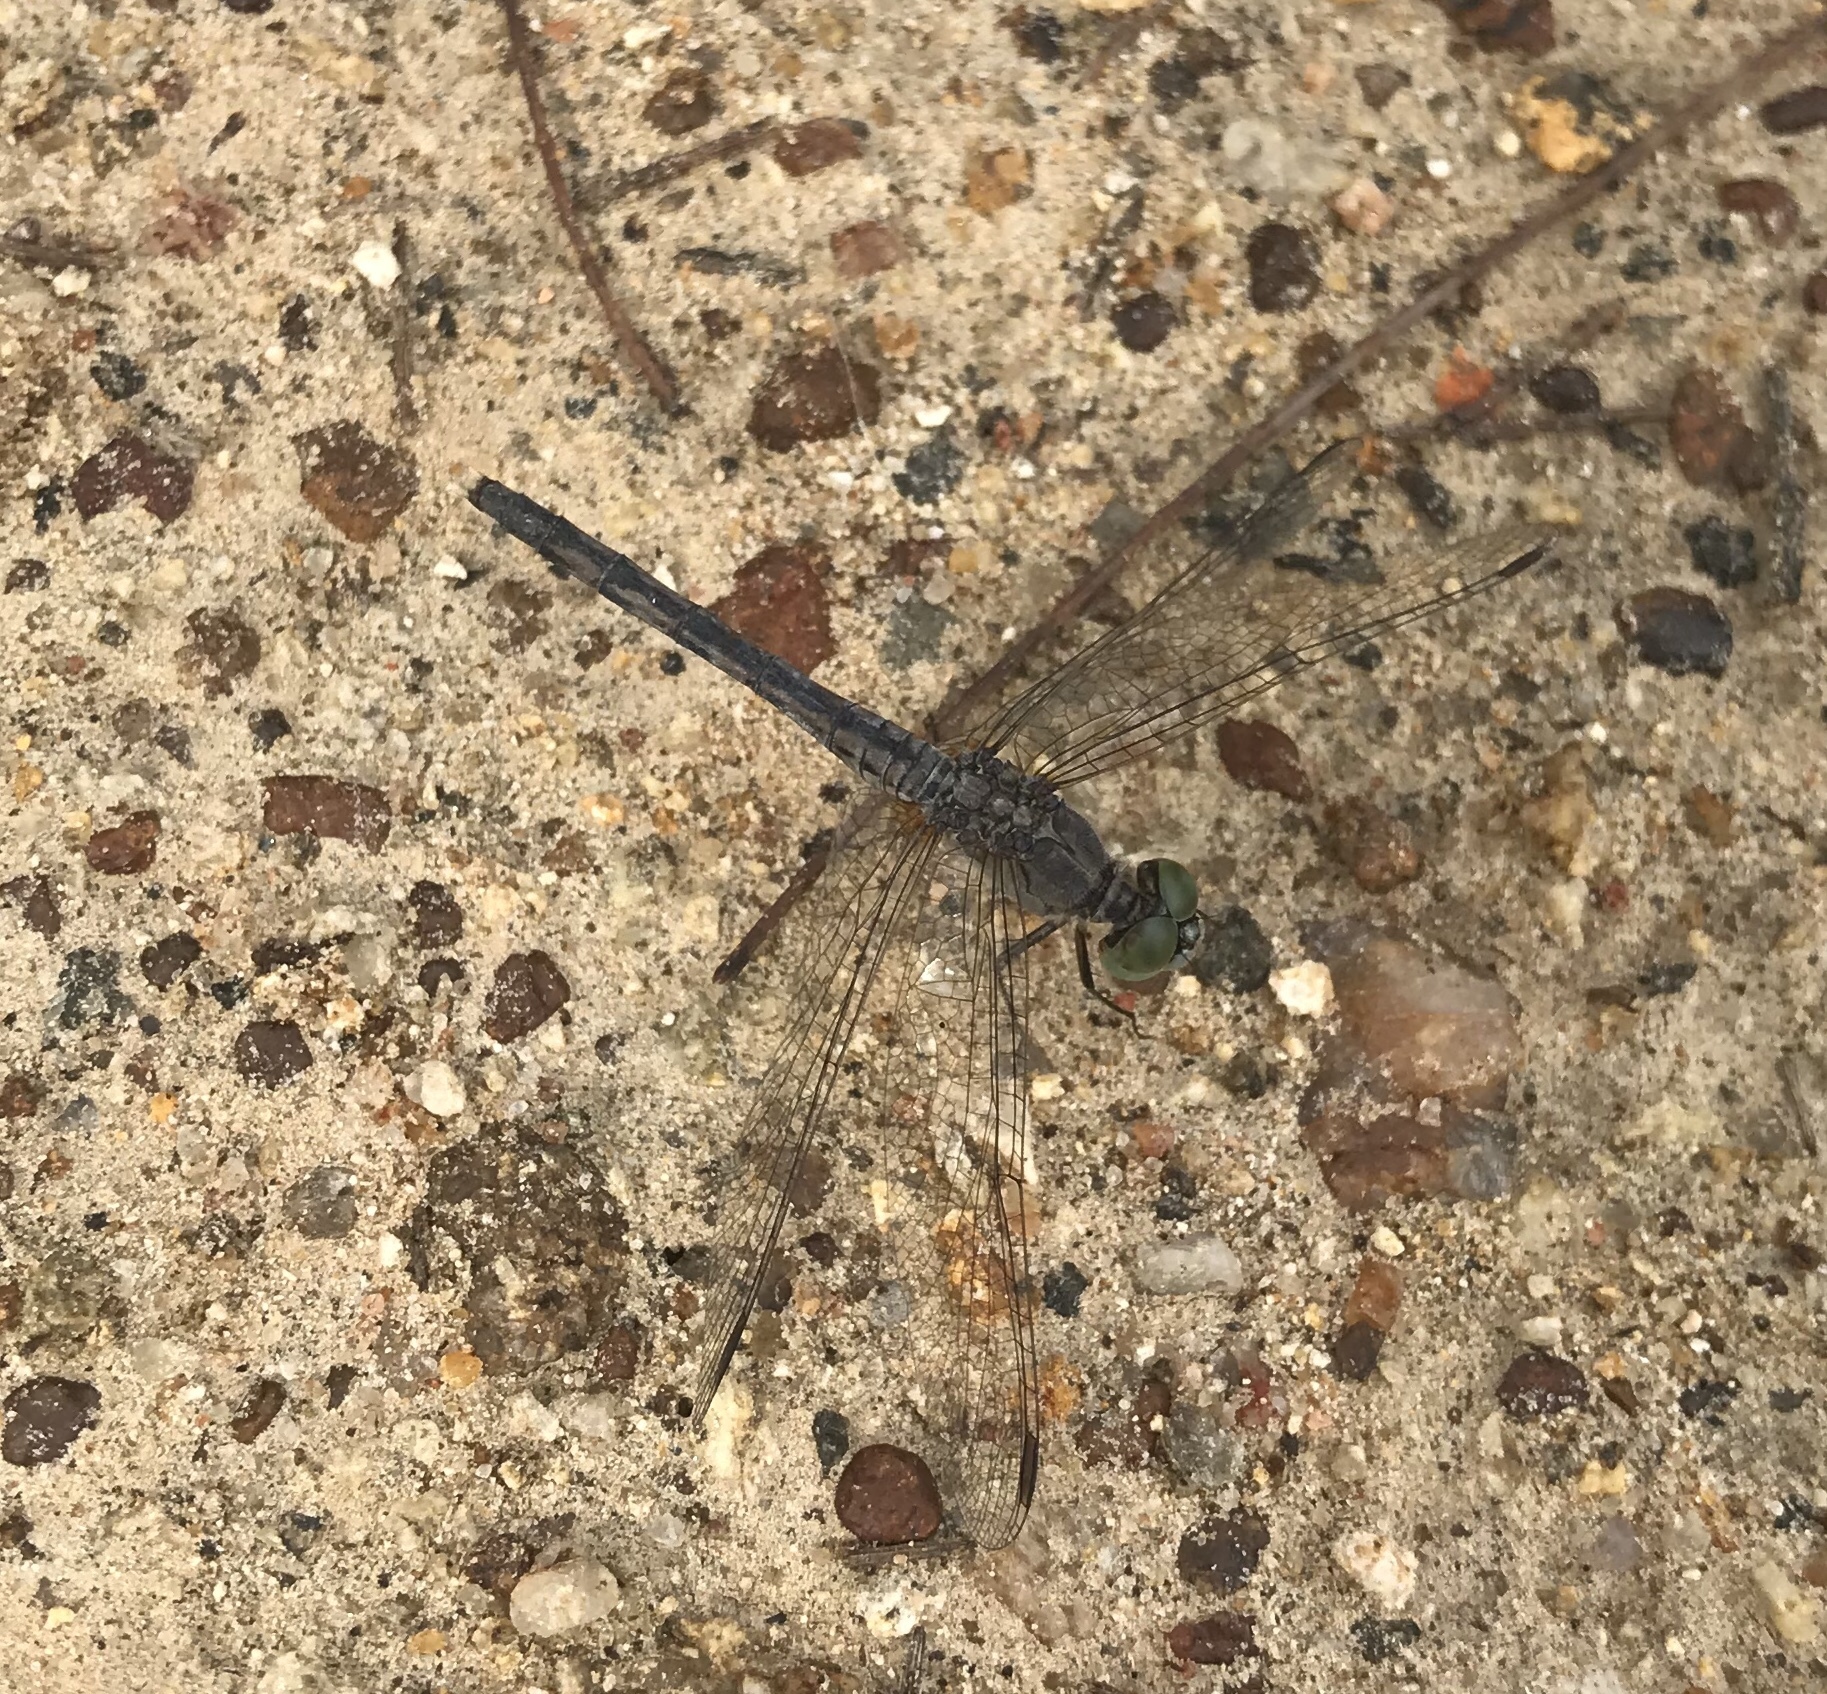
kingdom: Animalia
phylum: Arthropoda
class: Insecta
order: Odonata
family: Libellulidae
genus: Diplacodes
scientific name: Diplacodes trivialis
